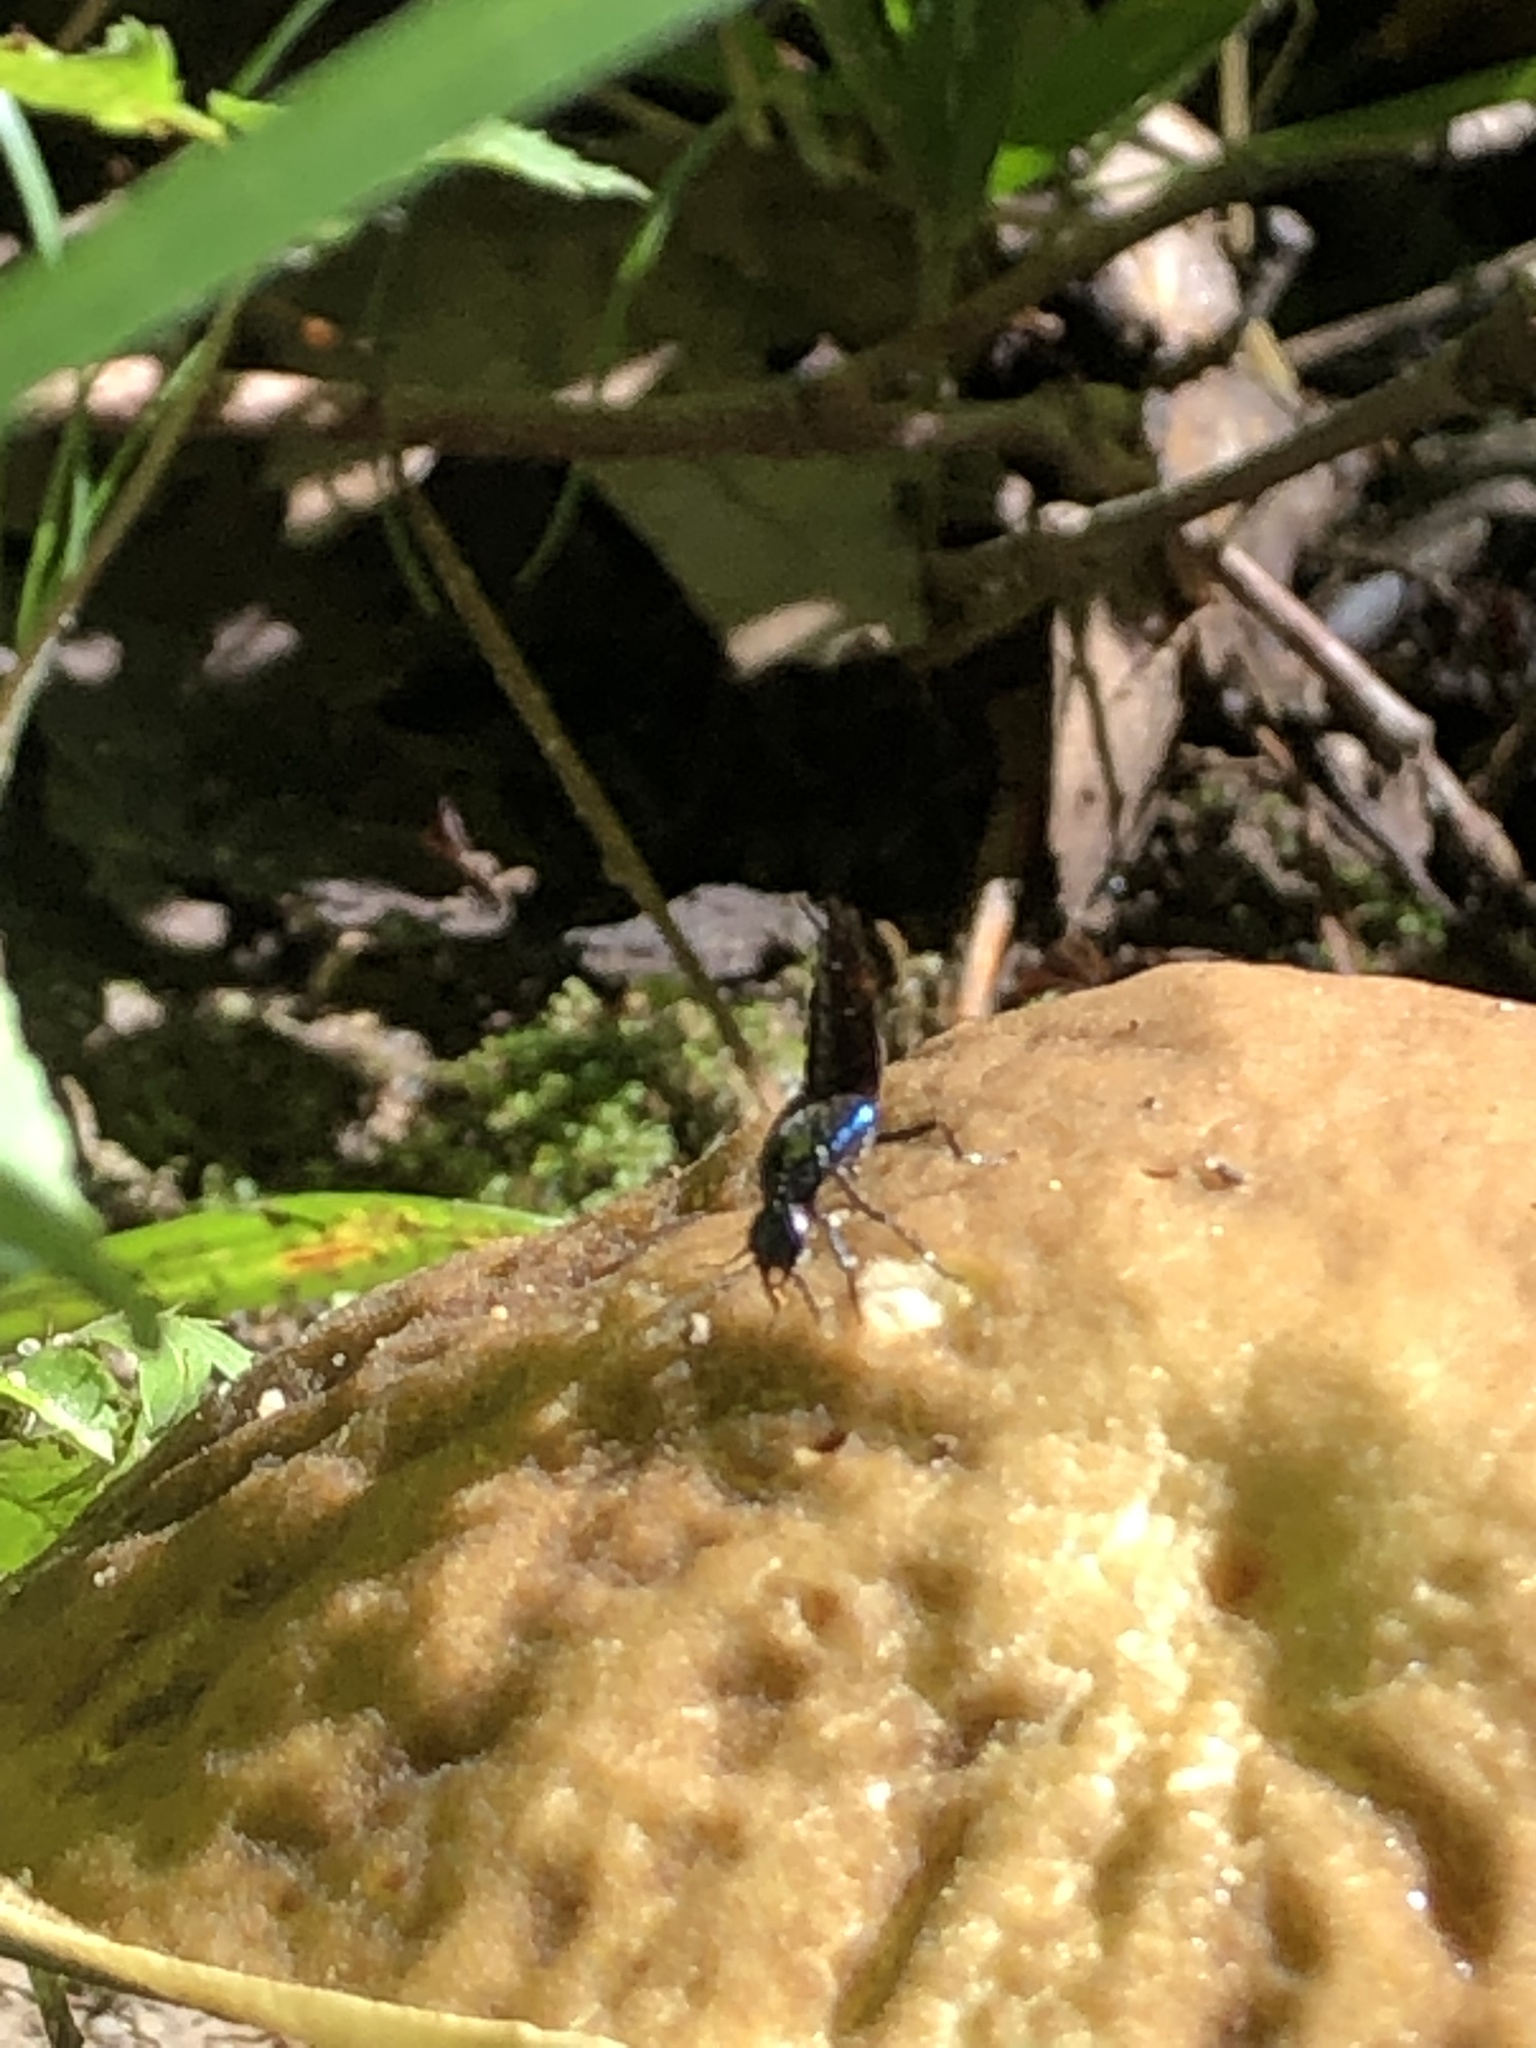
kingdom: Animalia
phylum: Arthropoda
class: Insecta
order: Coleoptera
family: Staphylinidae
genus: Philonthus
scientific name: Philonthus caeruleipennis
